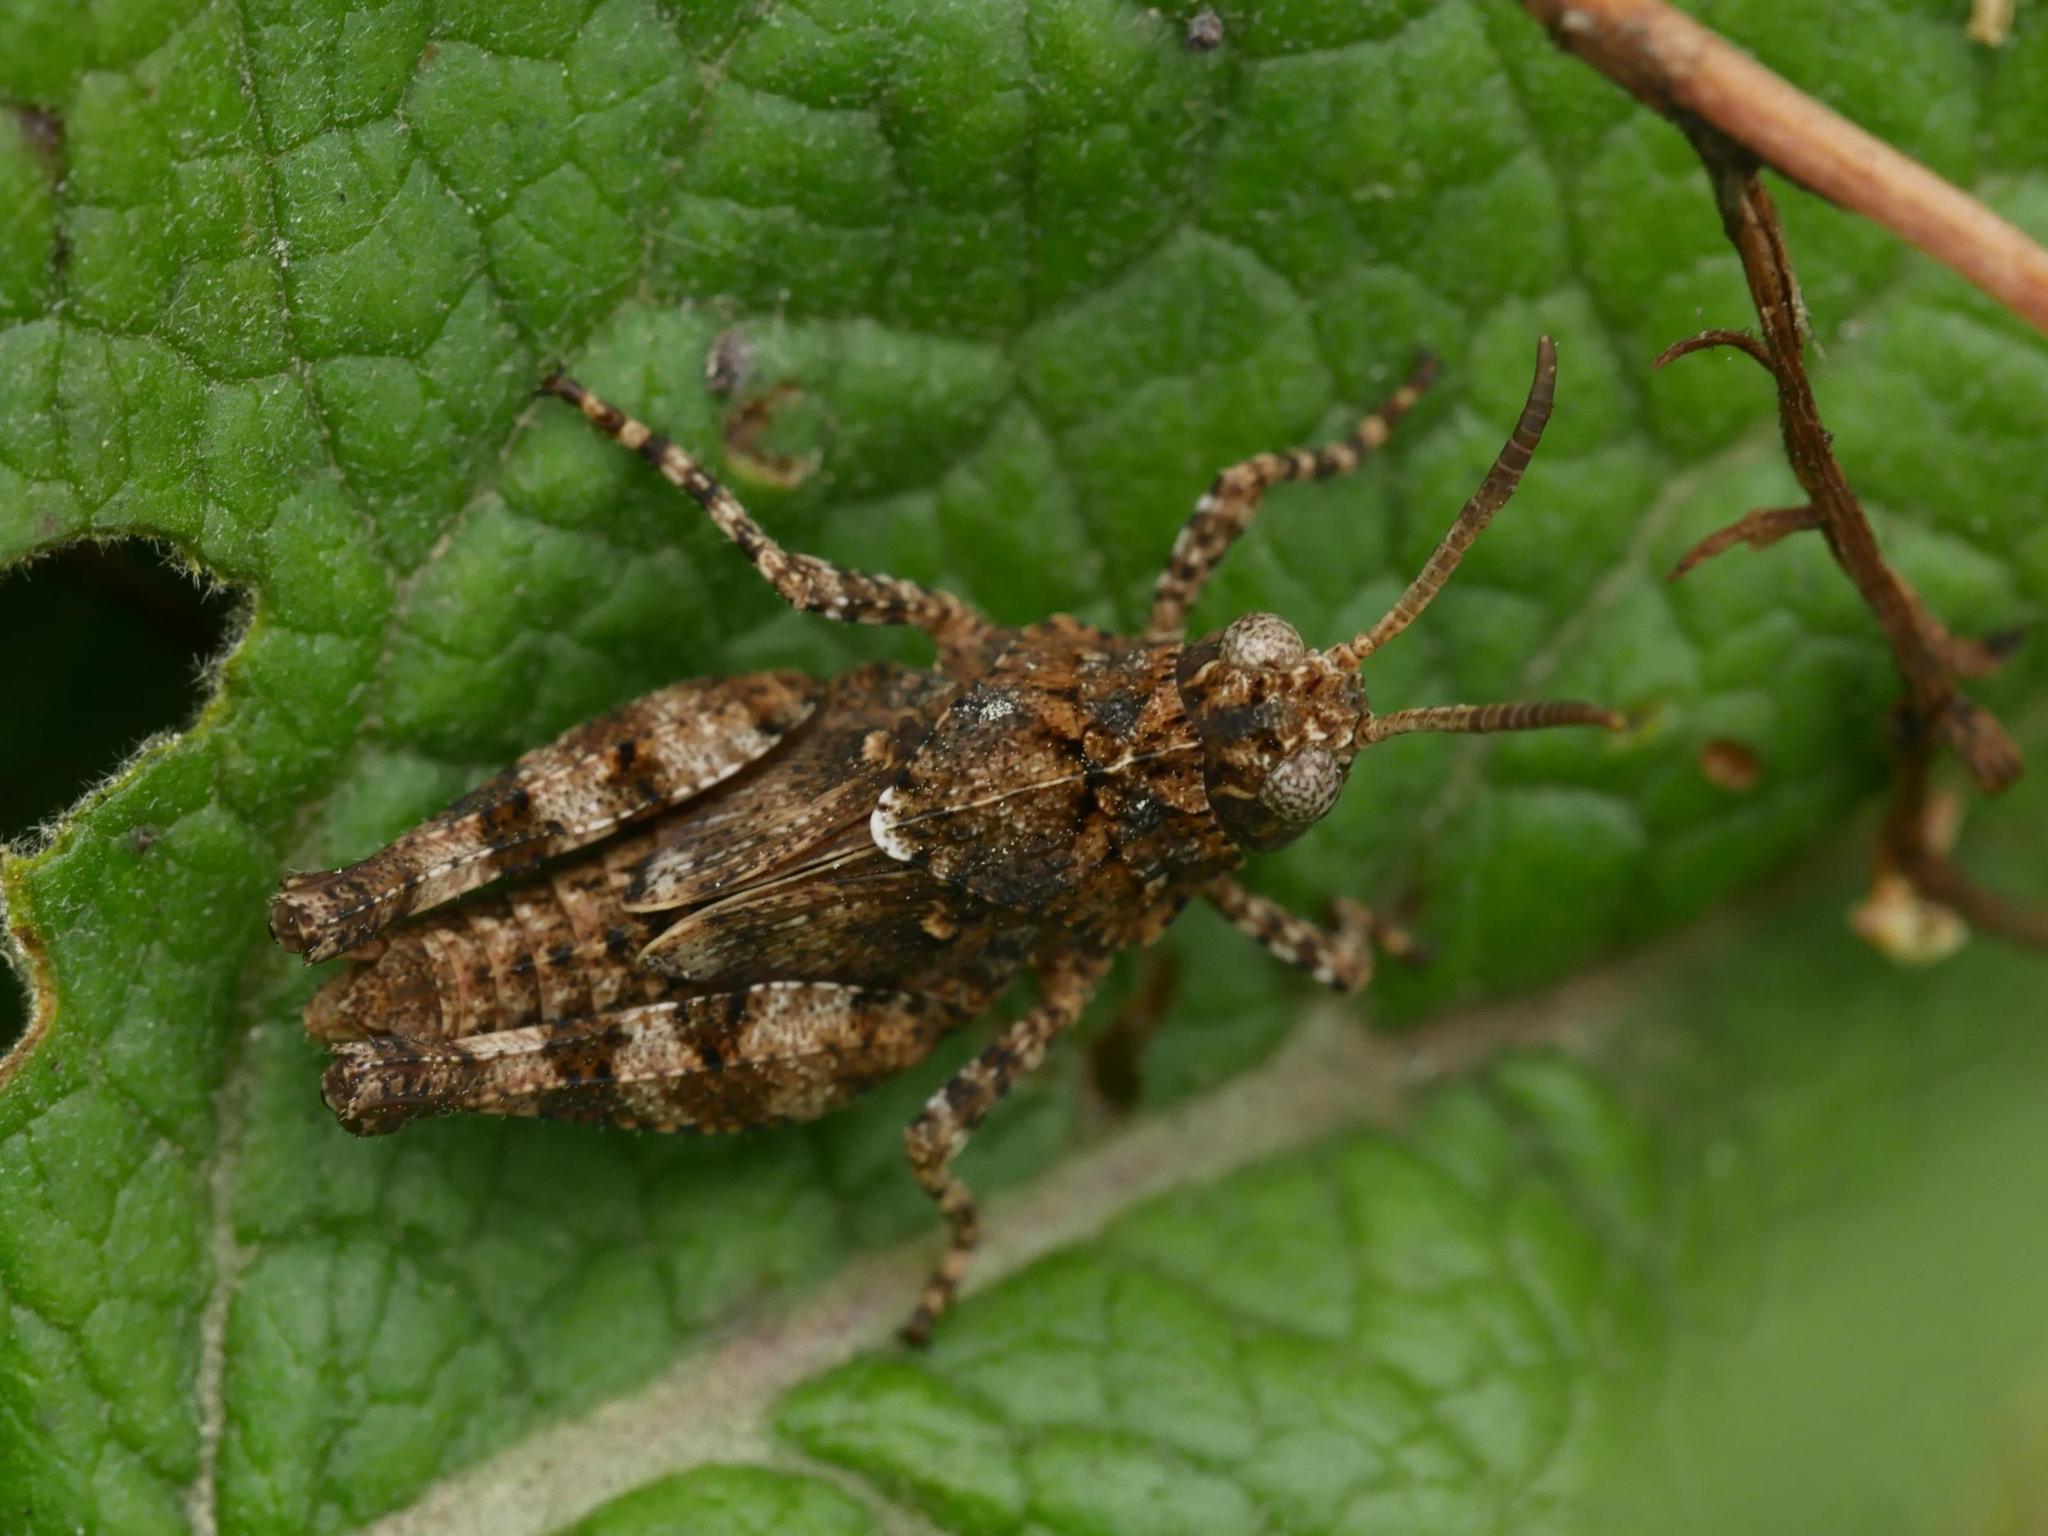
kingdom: Animalia
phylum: Arthropoda
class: Insecta
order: Orthoptera
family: Acrididae
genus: Oedipoda
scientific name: Oedipoda caerulescens
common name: Blue-winged grasshopper
